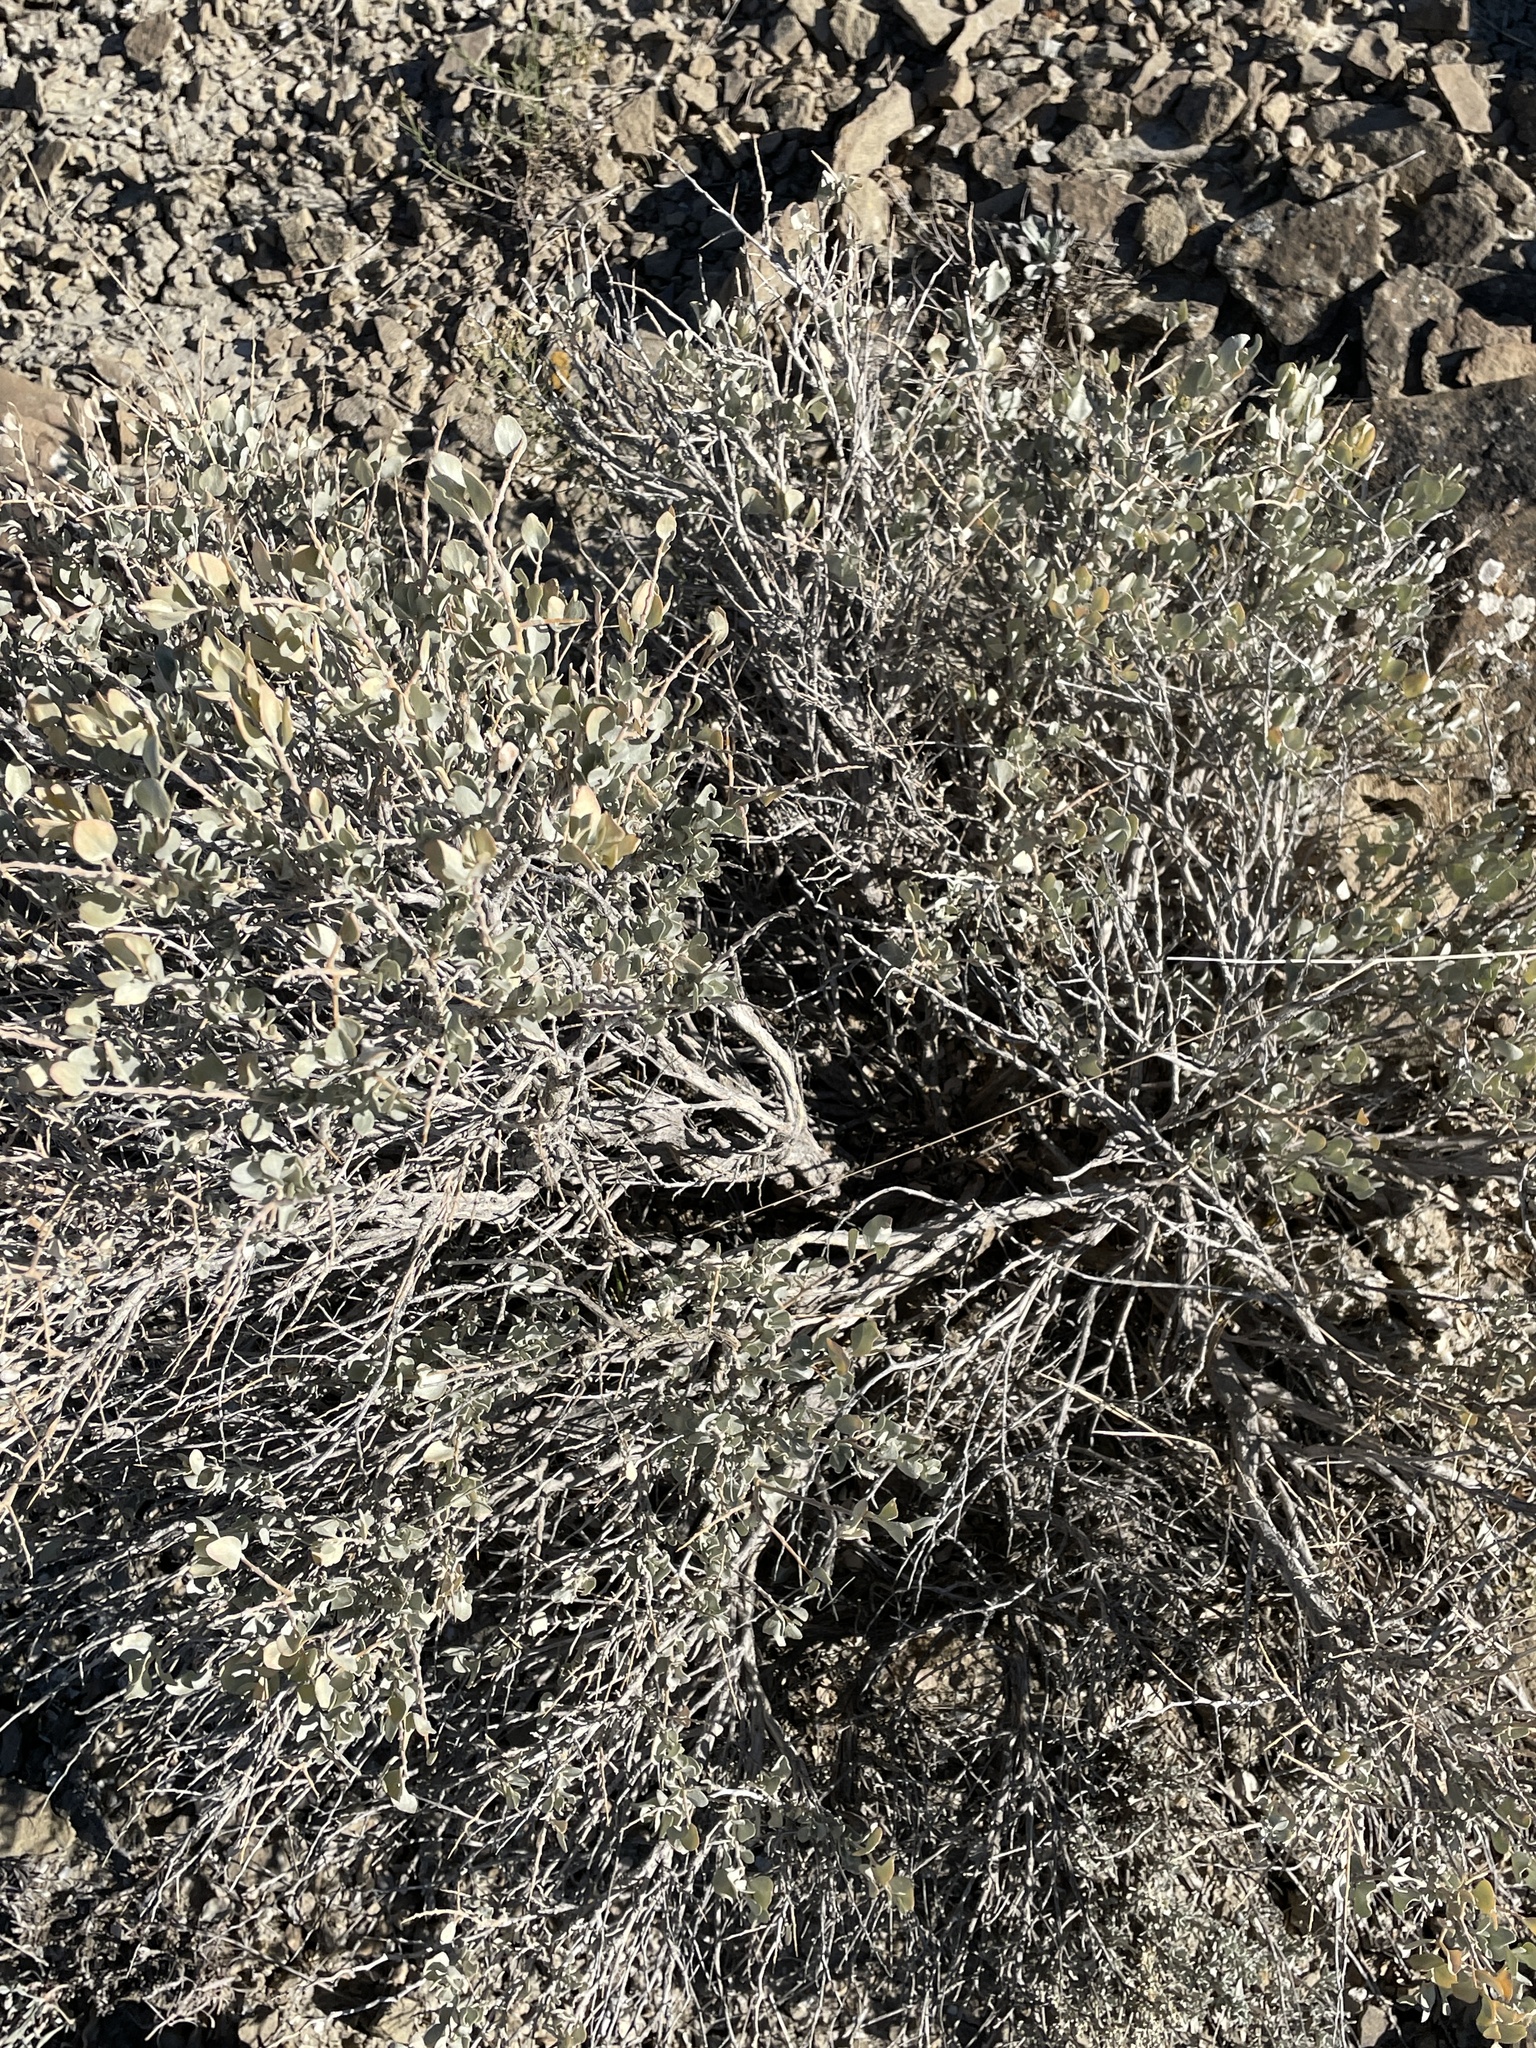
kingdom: Plantae
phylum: Tracheophyta
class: Magnoliopsida
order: Caryophyllales
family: Amaranthaceae
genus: Atriplex
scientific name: Atriplex confertifolia
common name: Shadscale
